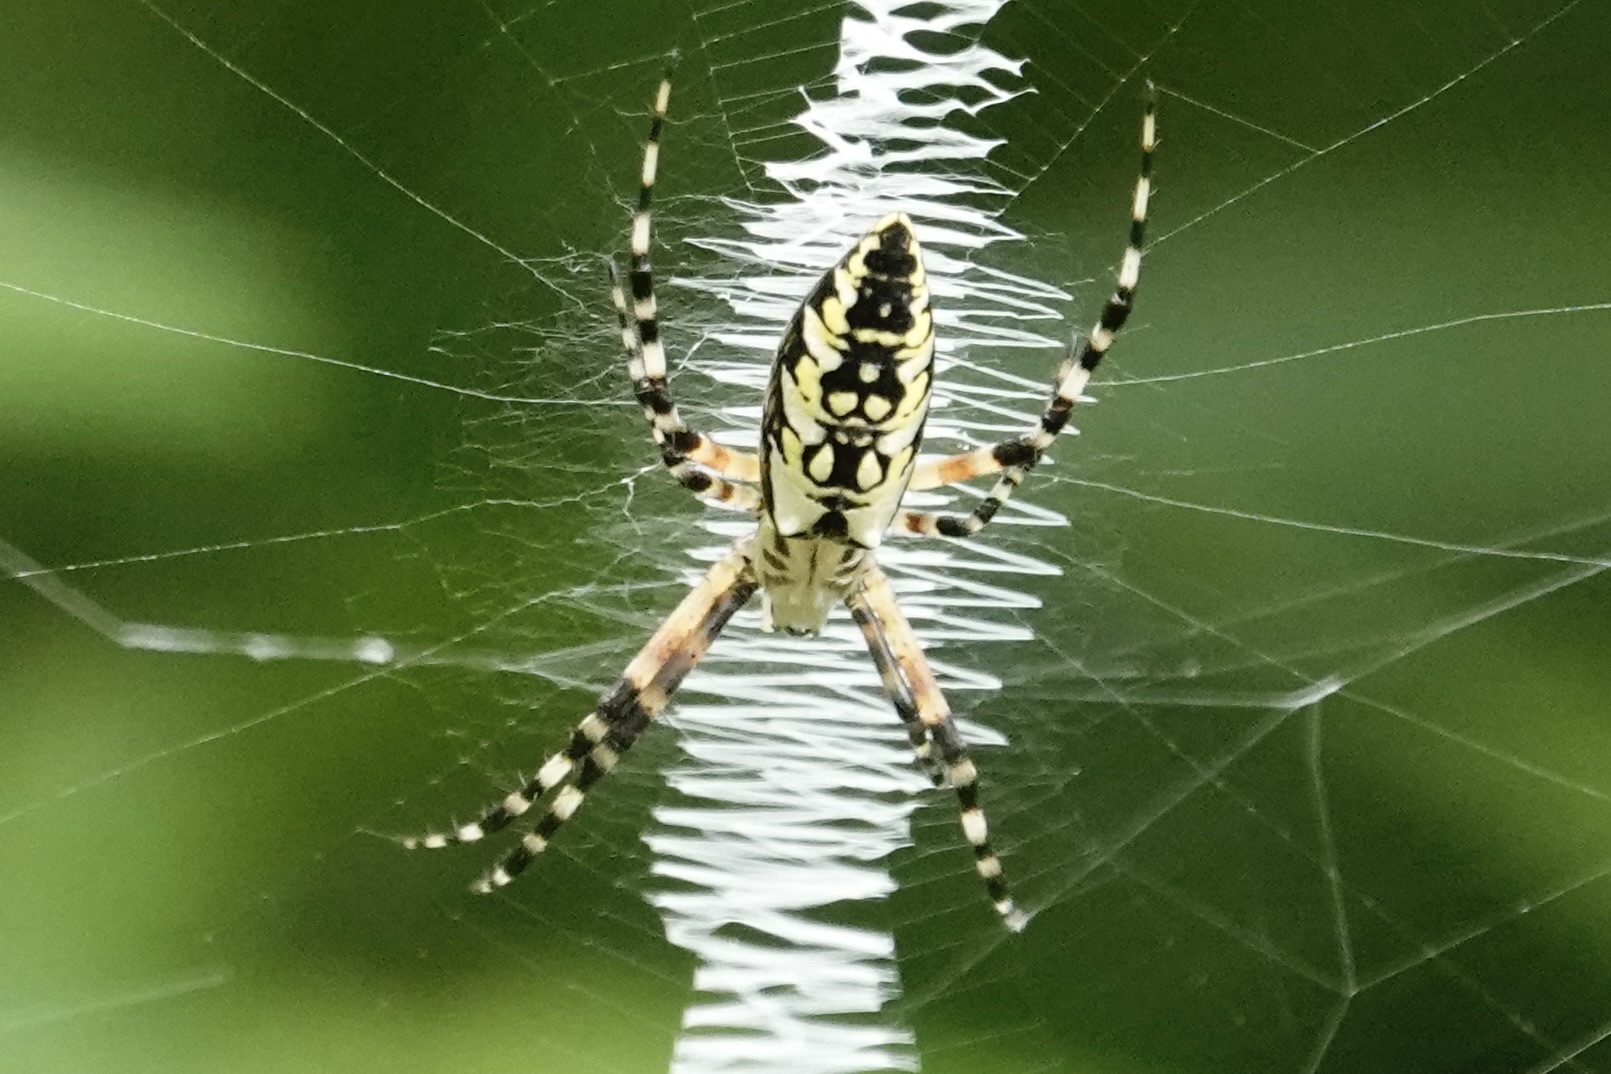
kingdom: Animalia
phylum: Arthropoda
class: Arachnida
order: Araneae
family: Araneidae
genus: Argiope
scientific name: Argiope aurantia
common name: Orb weavers
